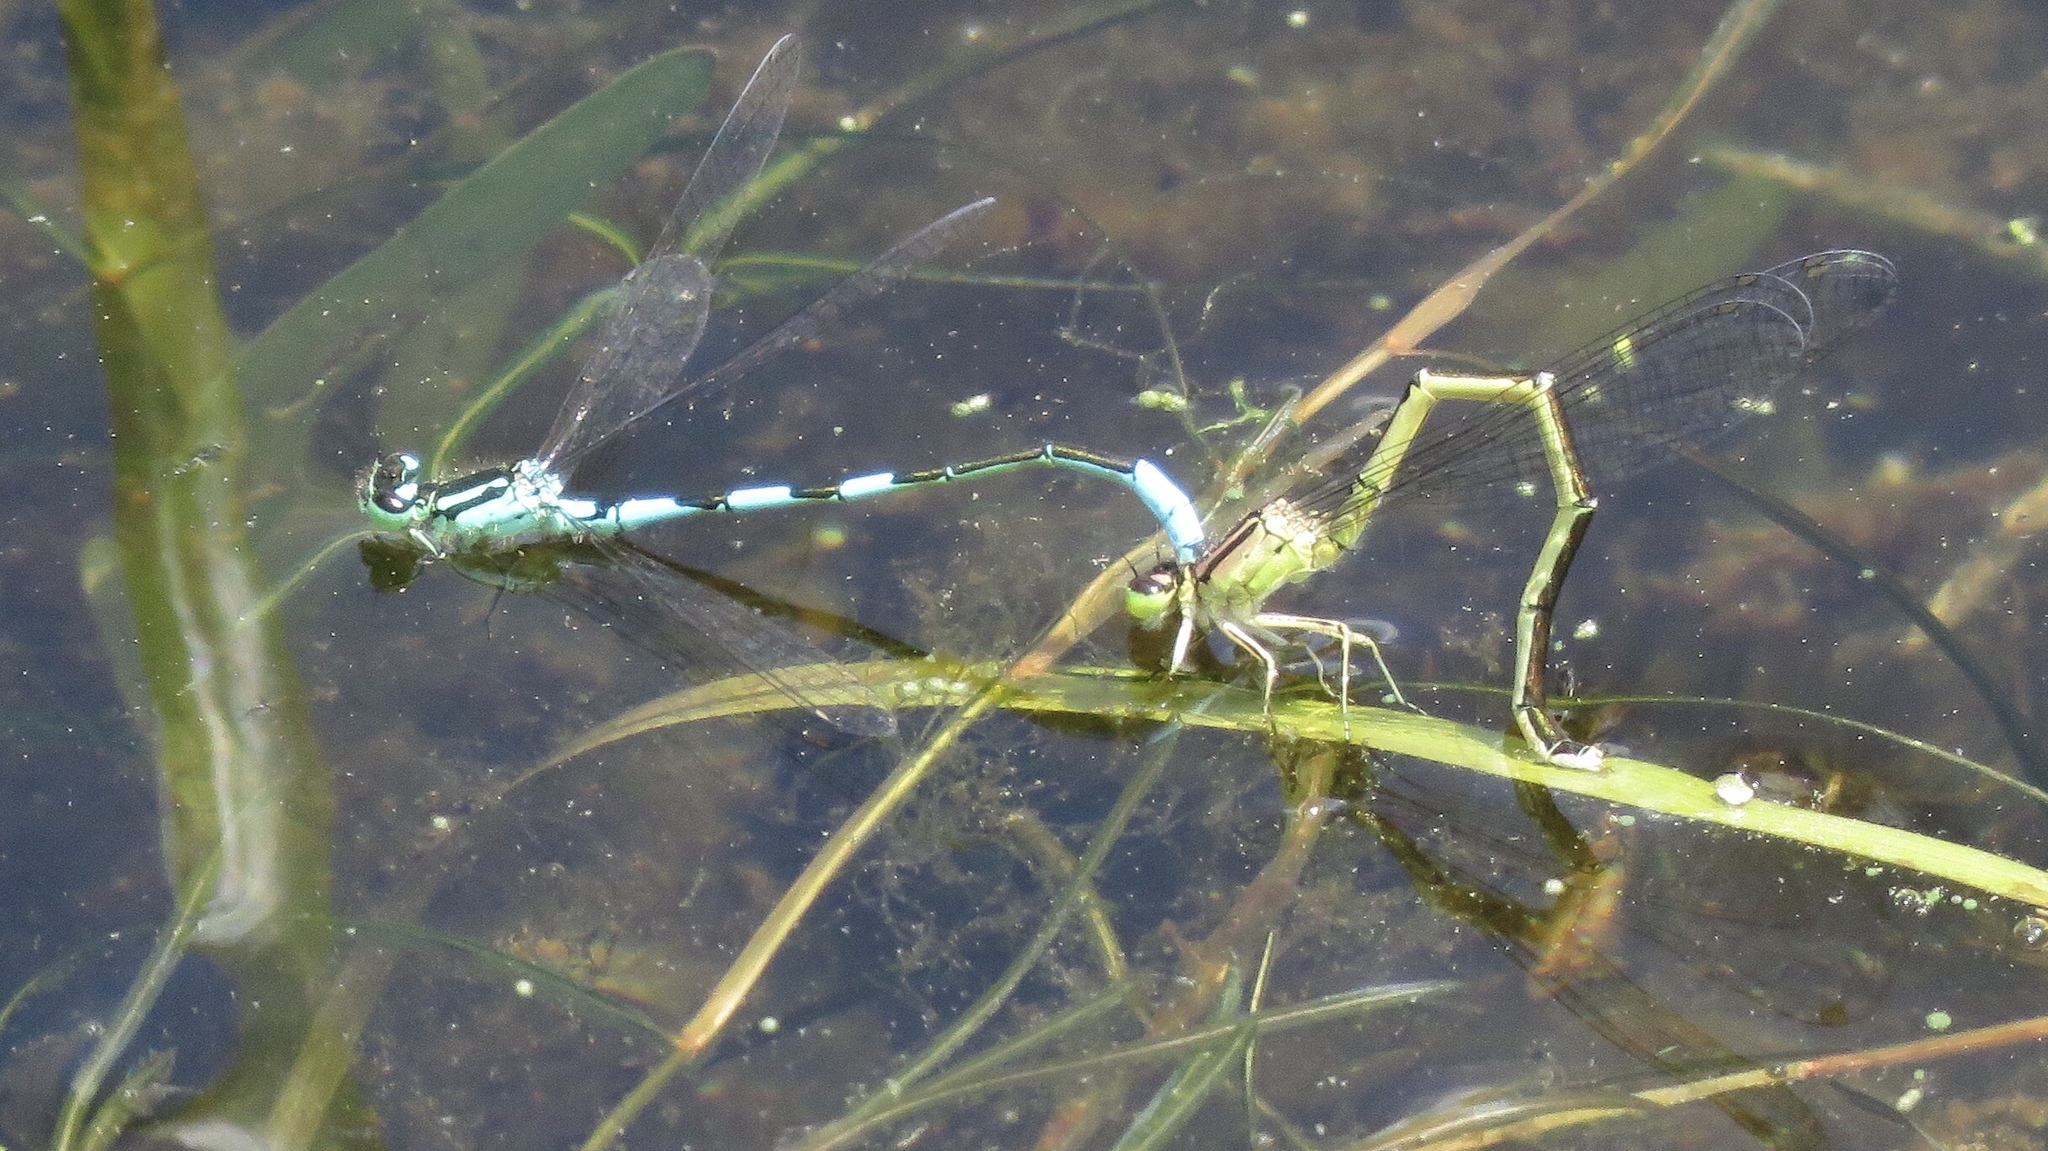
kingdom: Animalia
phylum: Arthropoda
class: Insecta
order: Odonata
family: Coenagrionidae
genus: Coenagrion
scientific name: Coenagrion resolutum
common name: Taiga bluet
